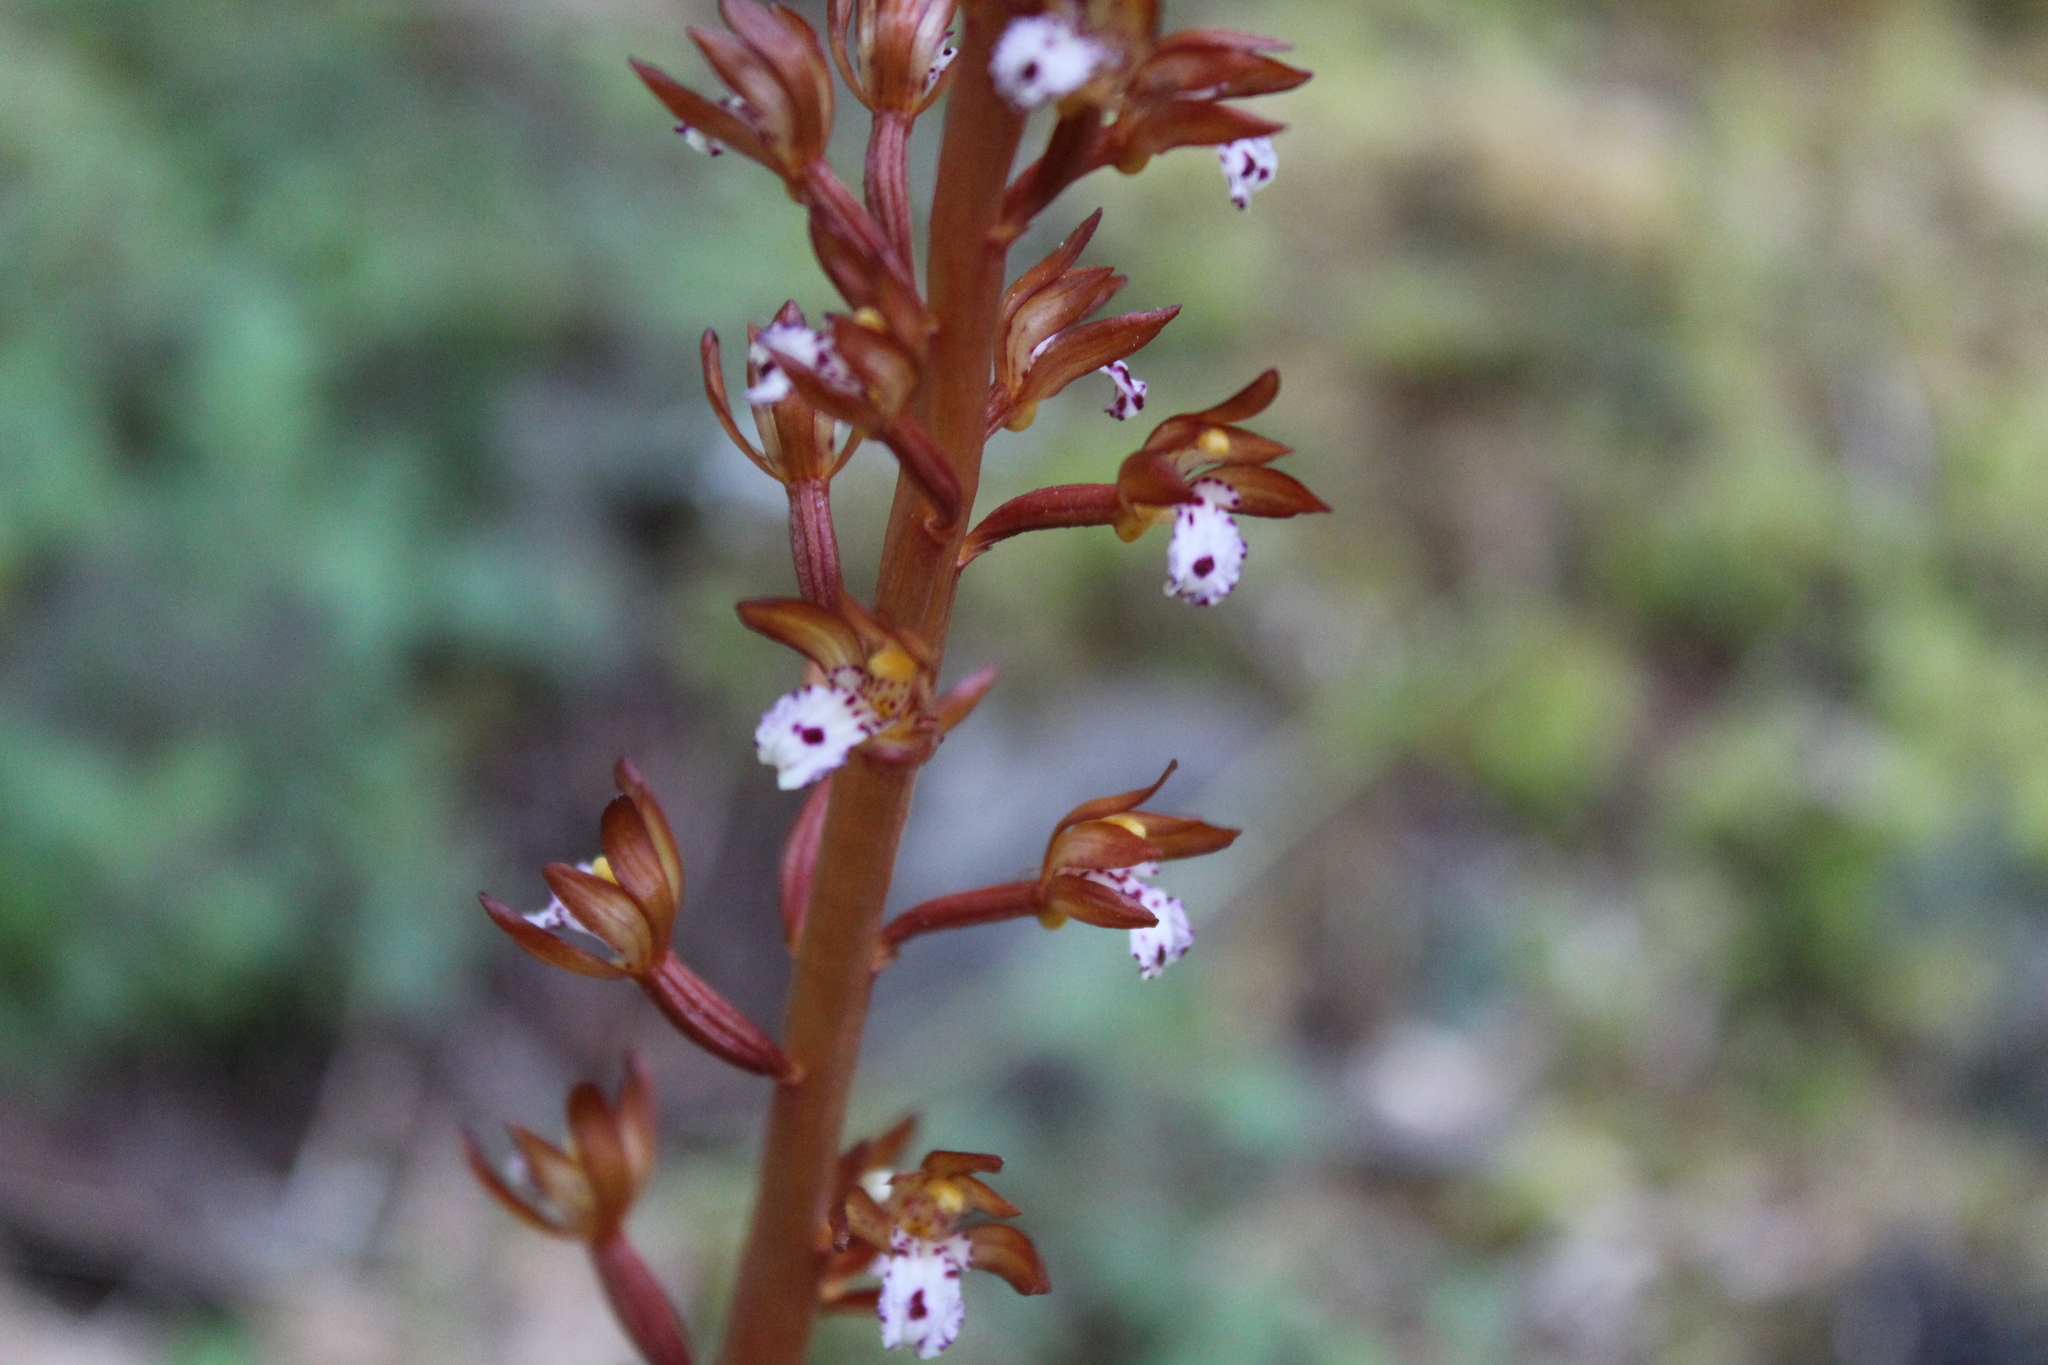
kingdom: Plantae
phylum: Tracheophyta
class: Liliopsida
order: Asparagales
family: Orchidaceae
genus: Corallorhiza
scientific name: Corallorhiza maculata
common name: Spotted coralroot
